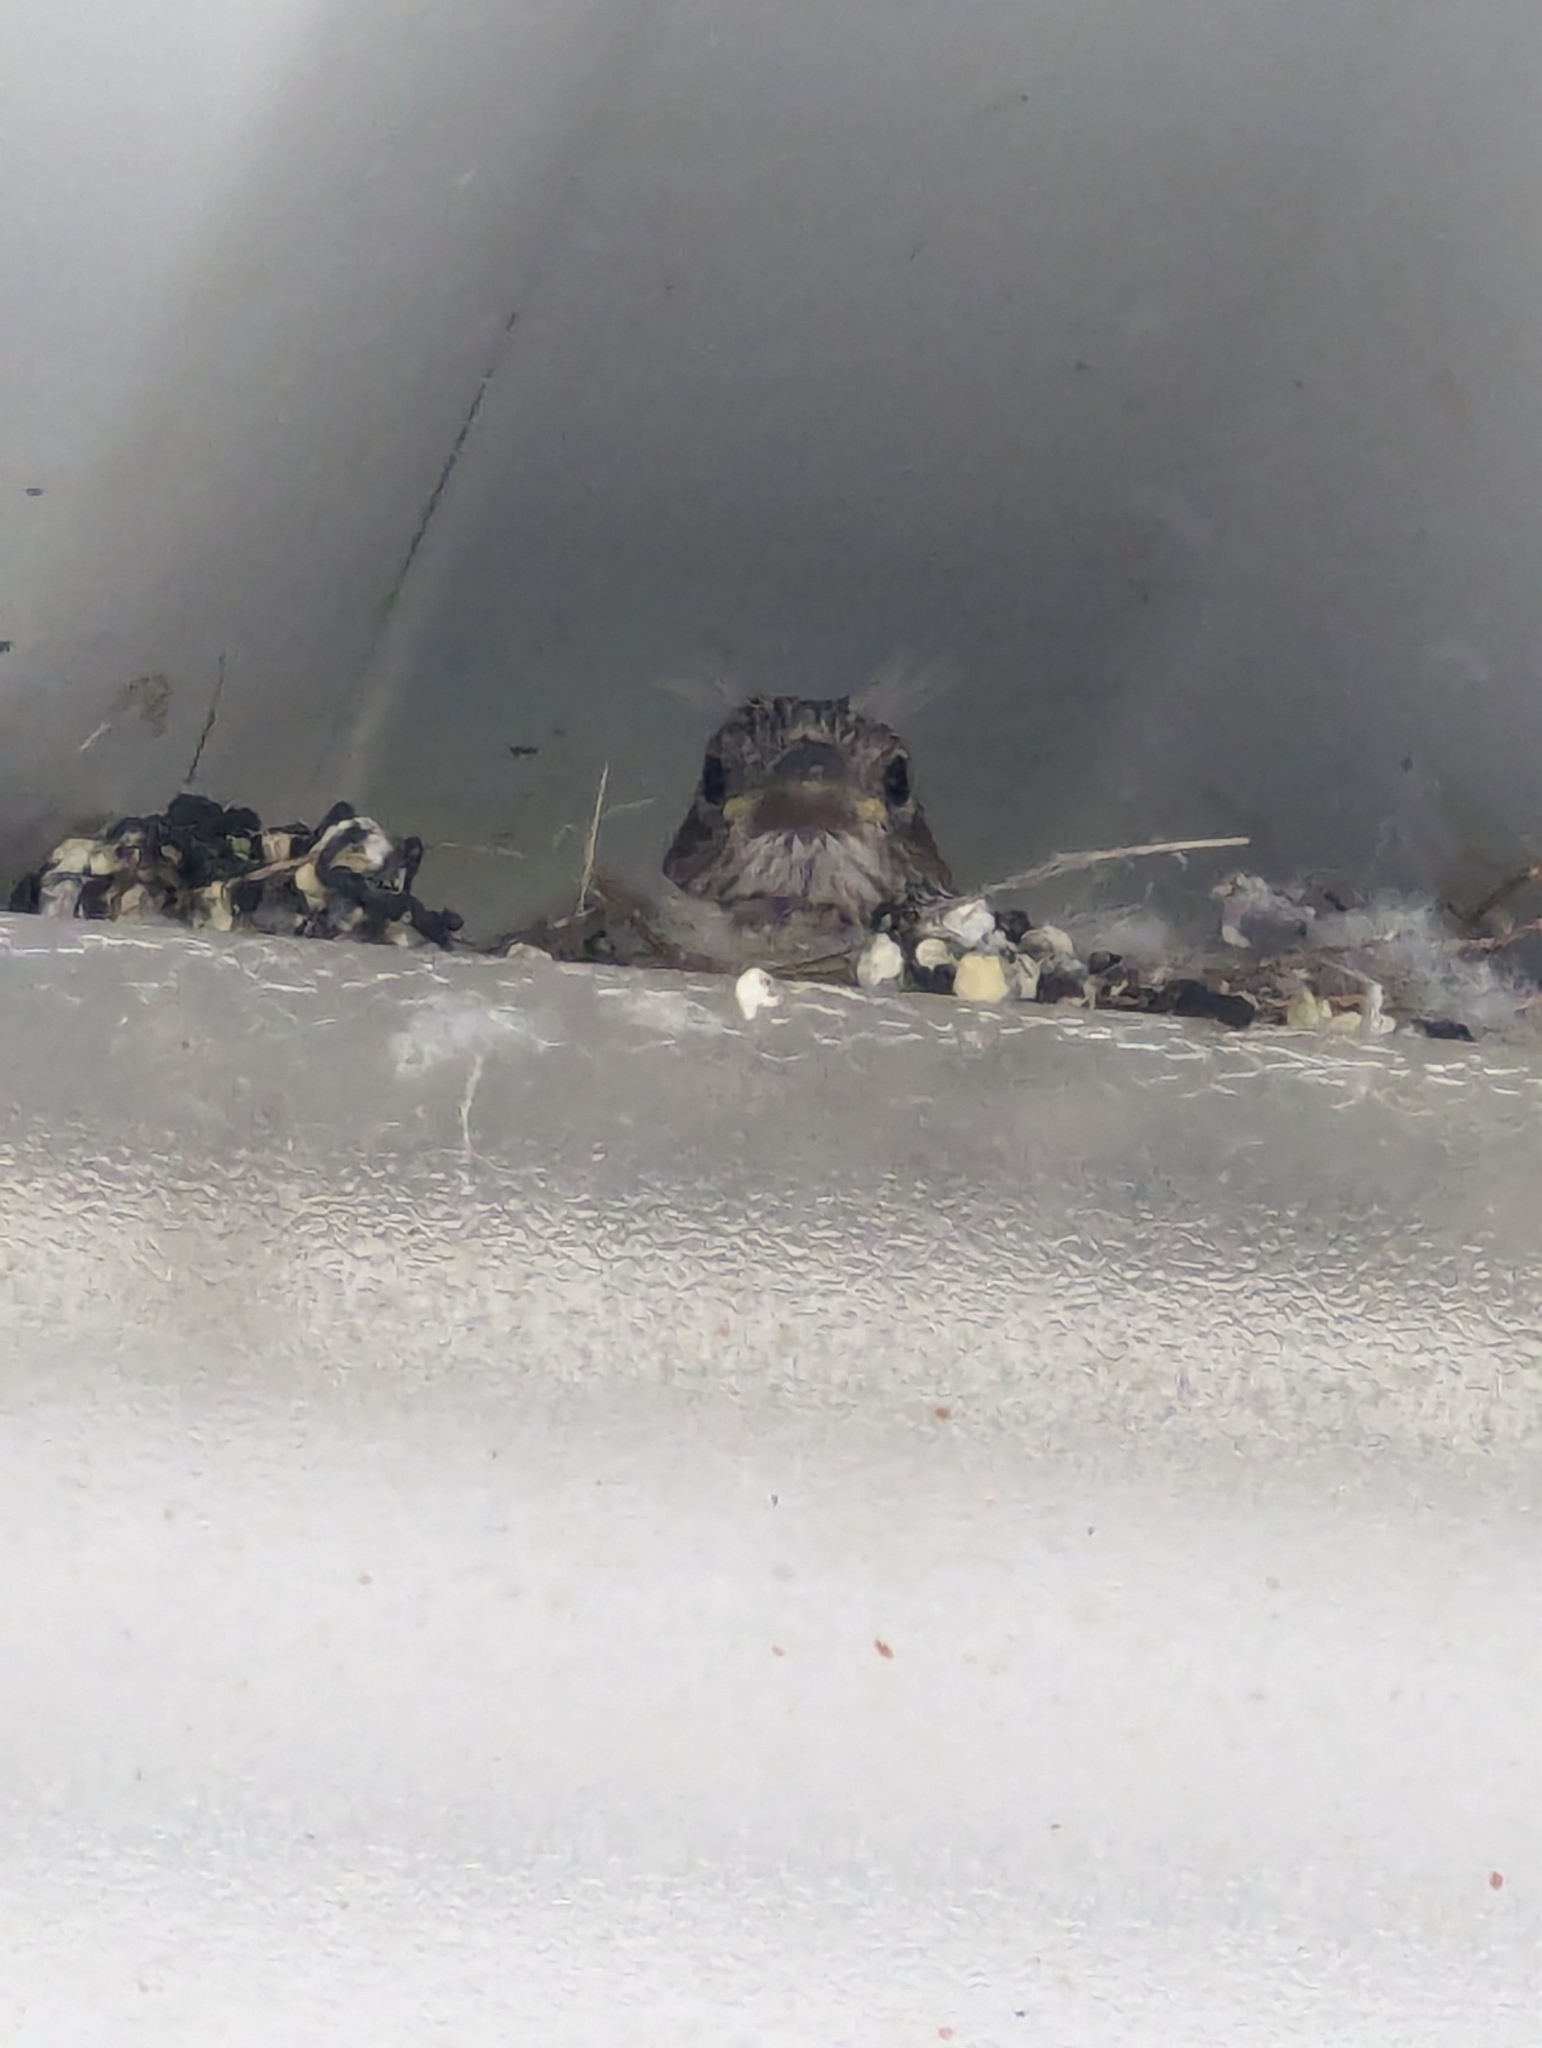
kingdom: Animalia
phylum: Chordata
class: Aves
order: Passeriformes
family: Fringillidae
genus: Haemorhous
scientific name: Haemorhous mexicanus
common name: House finch
